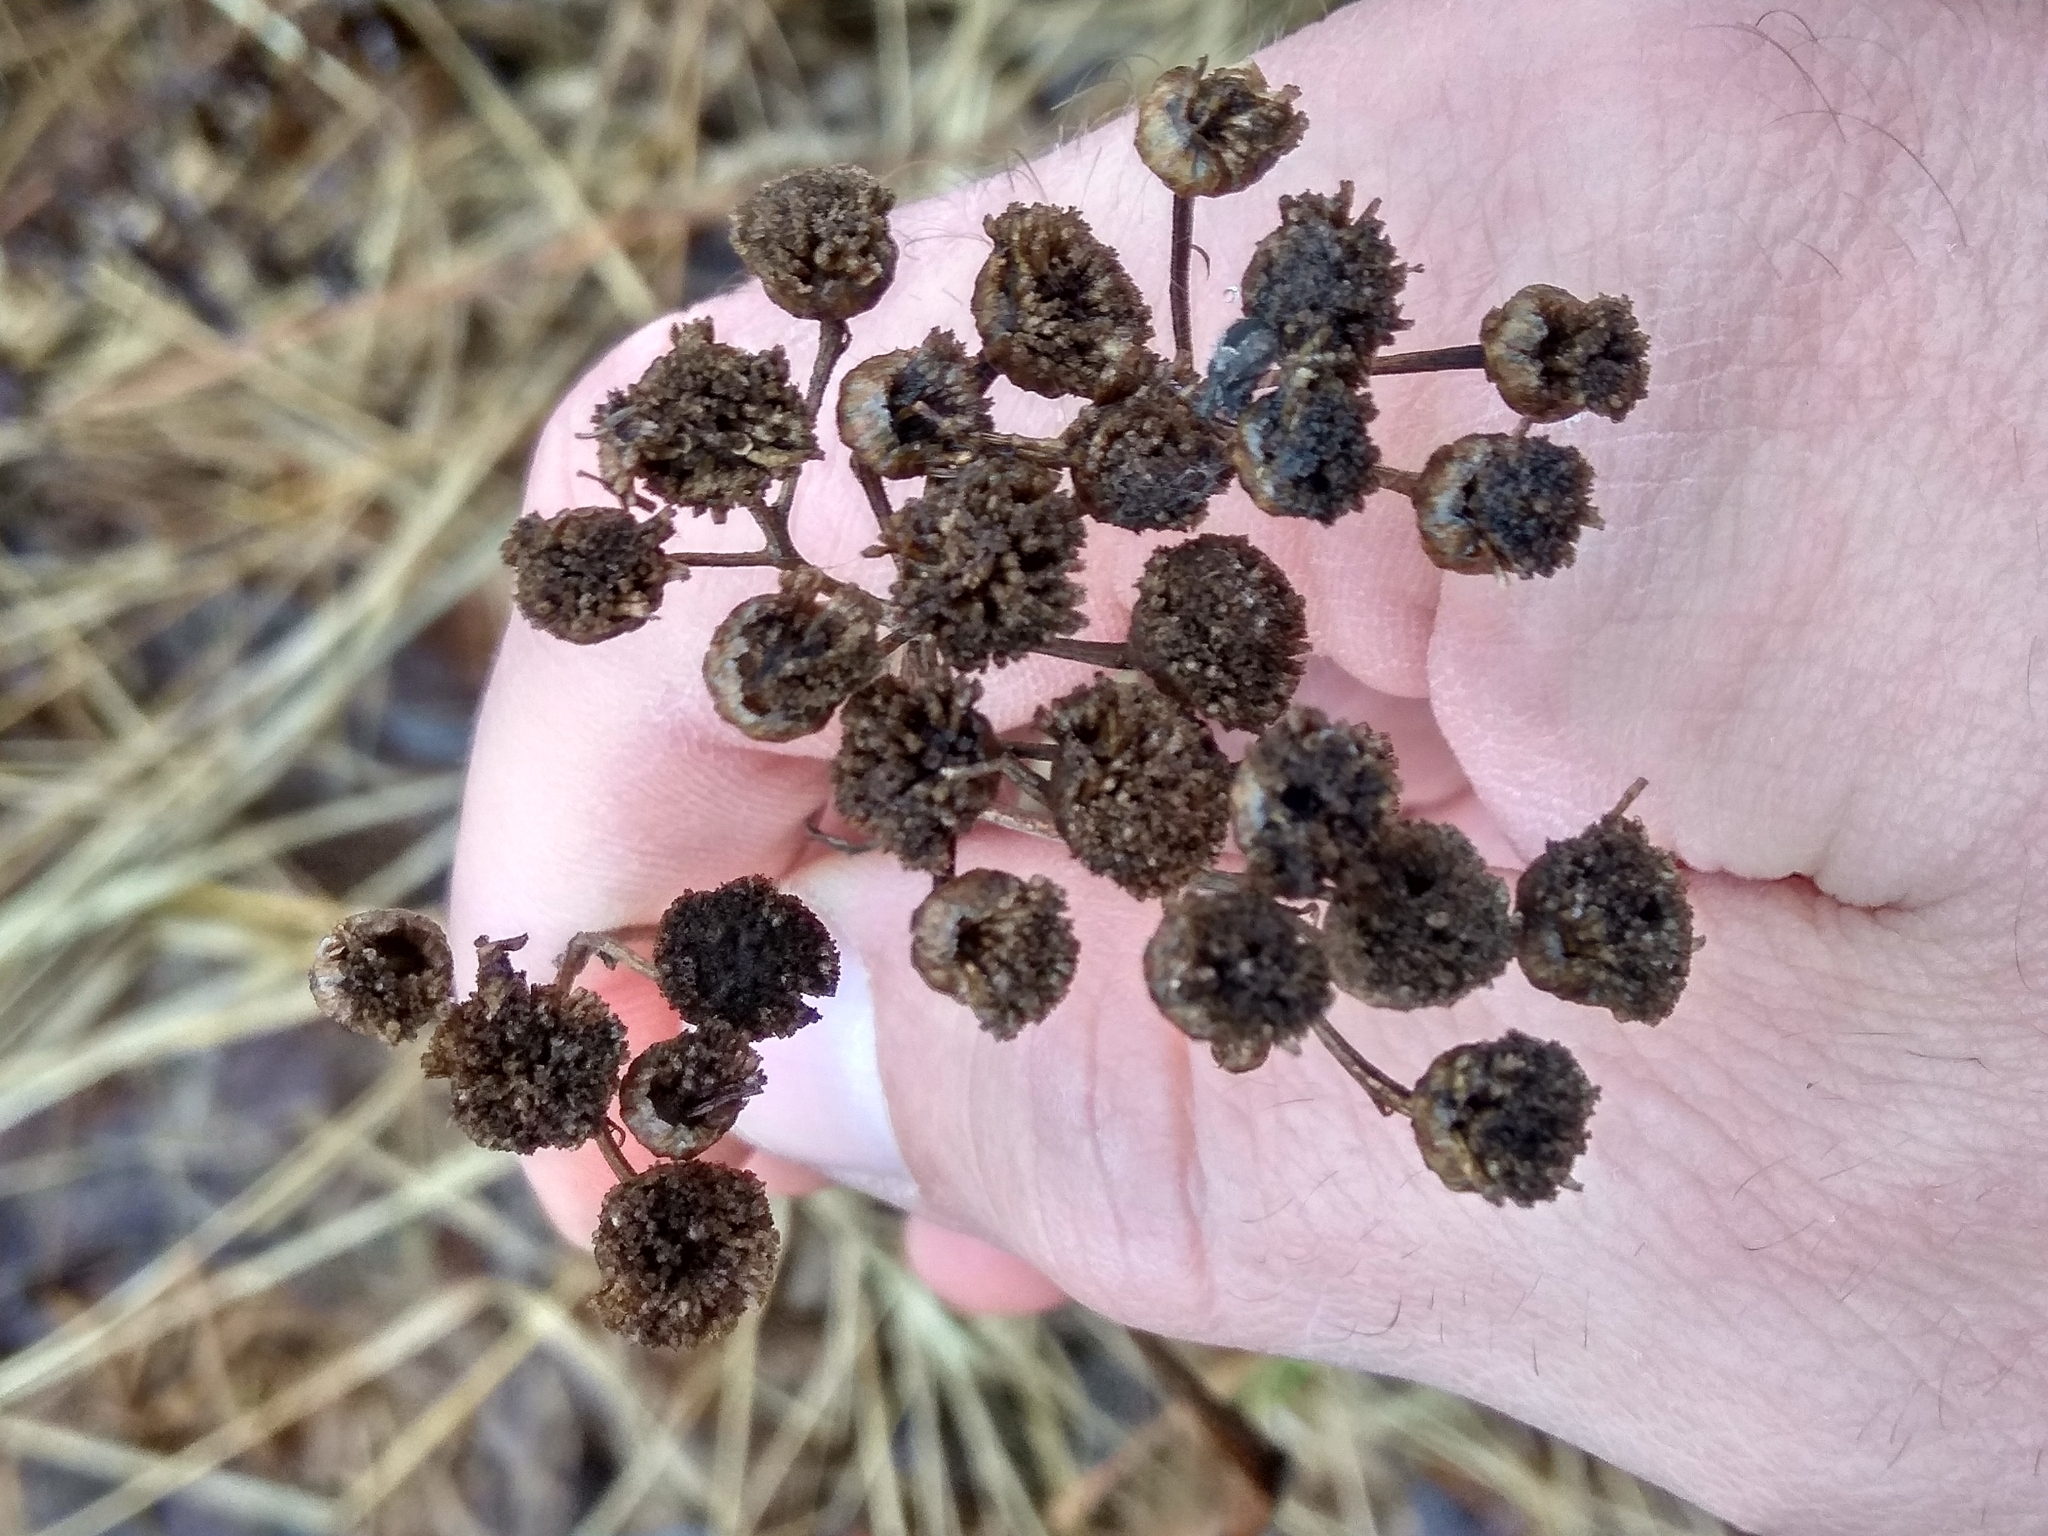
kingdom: Plantae
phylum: Tracheophyta
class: Magnoliopsida
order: Asterales
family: Asteraceae
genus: Tanacetum
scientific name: Tanacetum vulgare
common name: Common tansy
